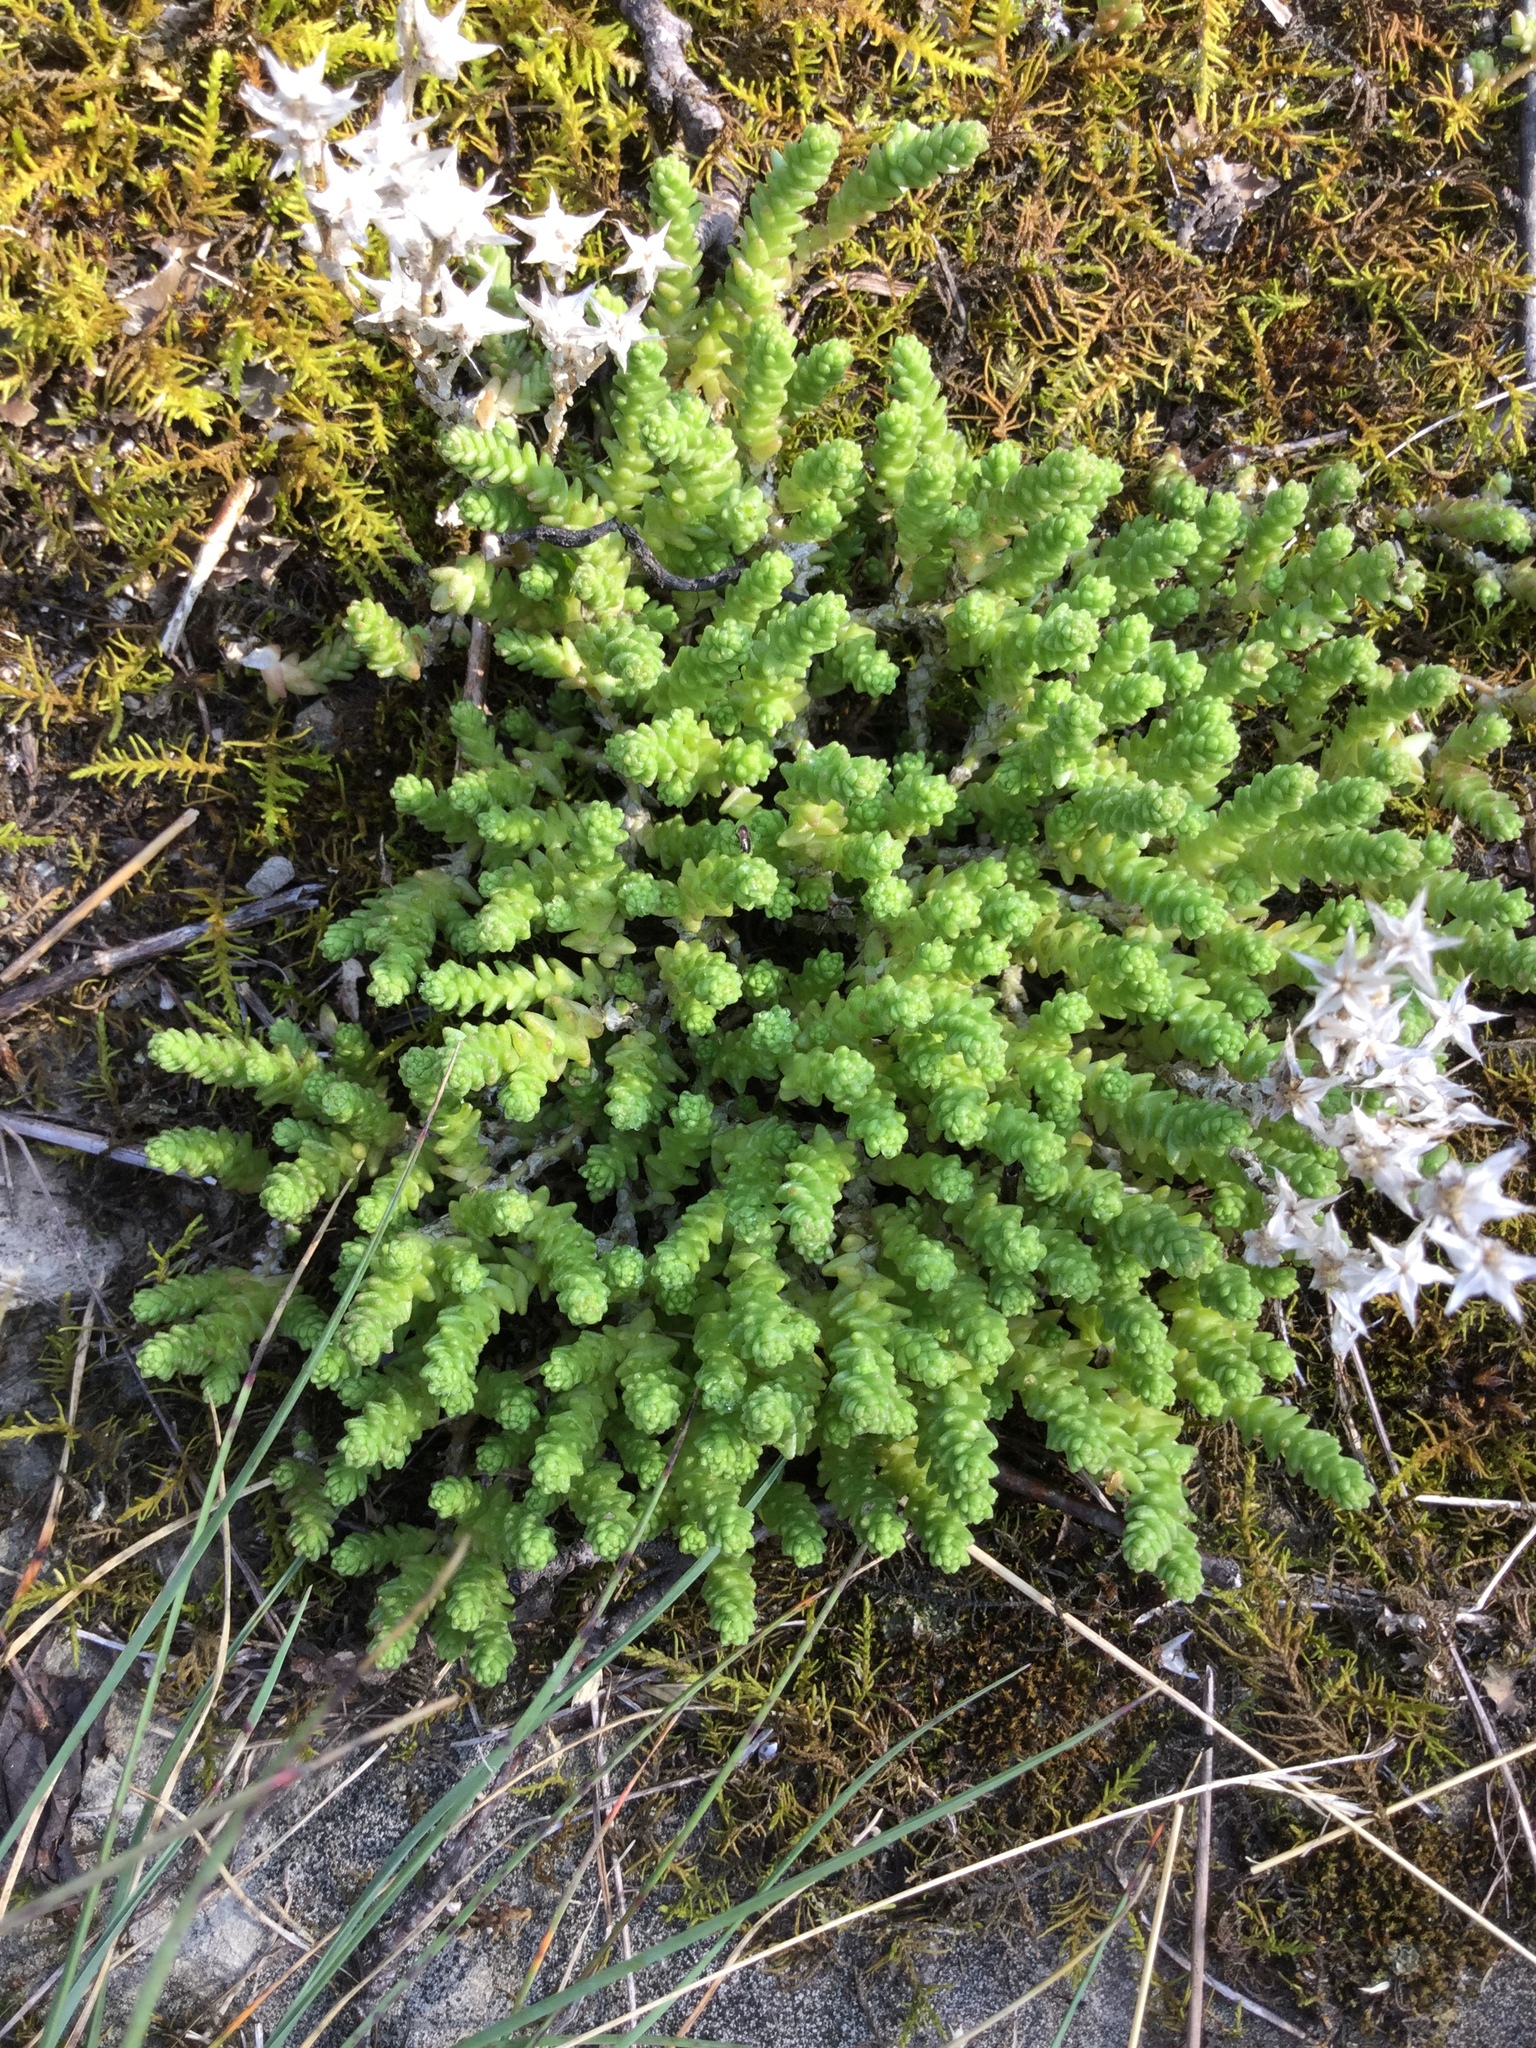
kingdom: Plantae
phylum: Tracheophyta
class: Magnoliopsida
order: Saxifragales
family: Crassulaceae
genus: Sedum
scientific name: Sedum acre
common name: Biting stonecrop
